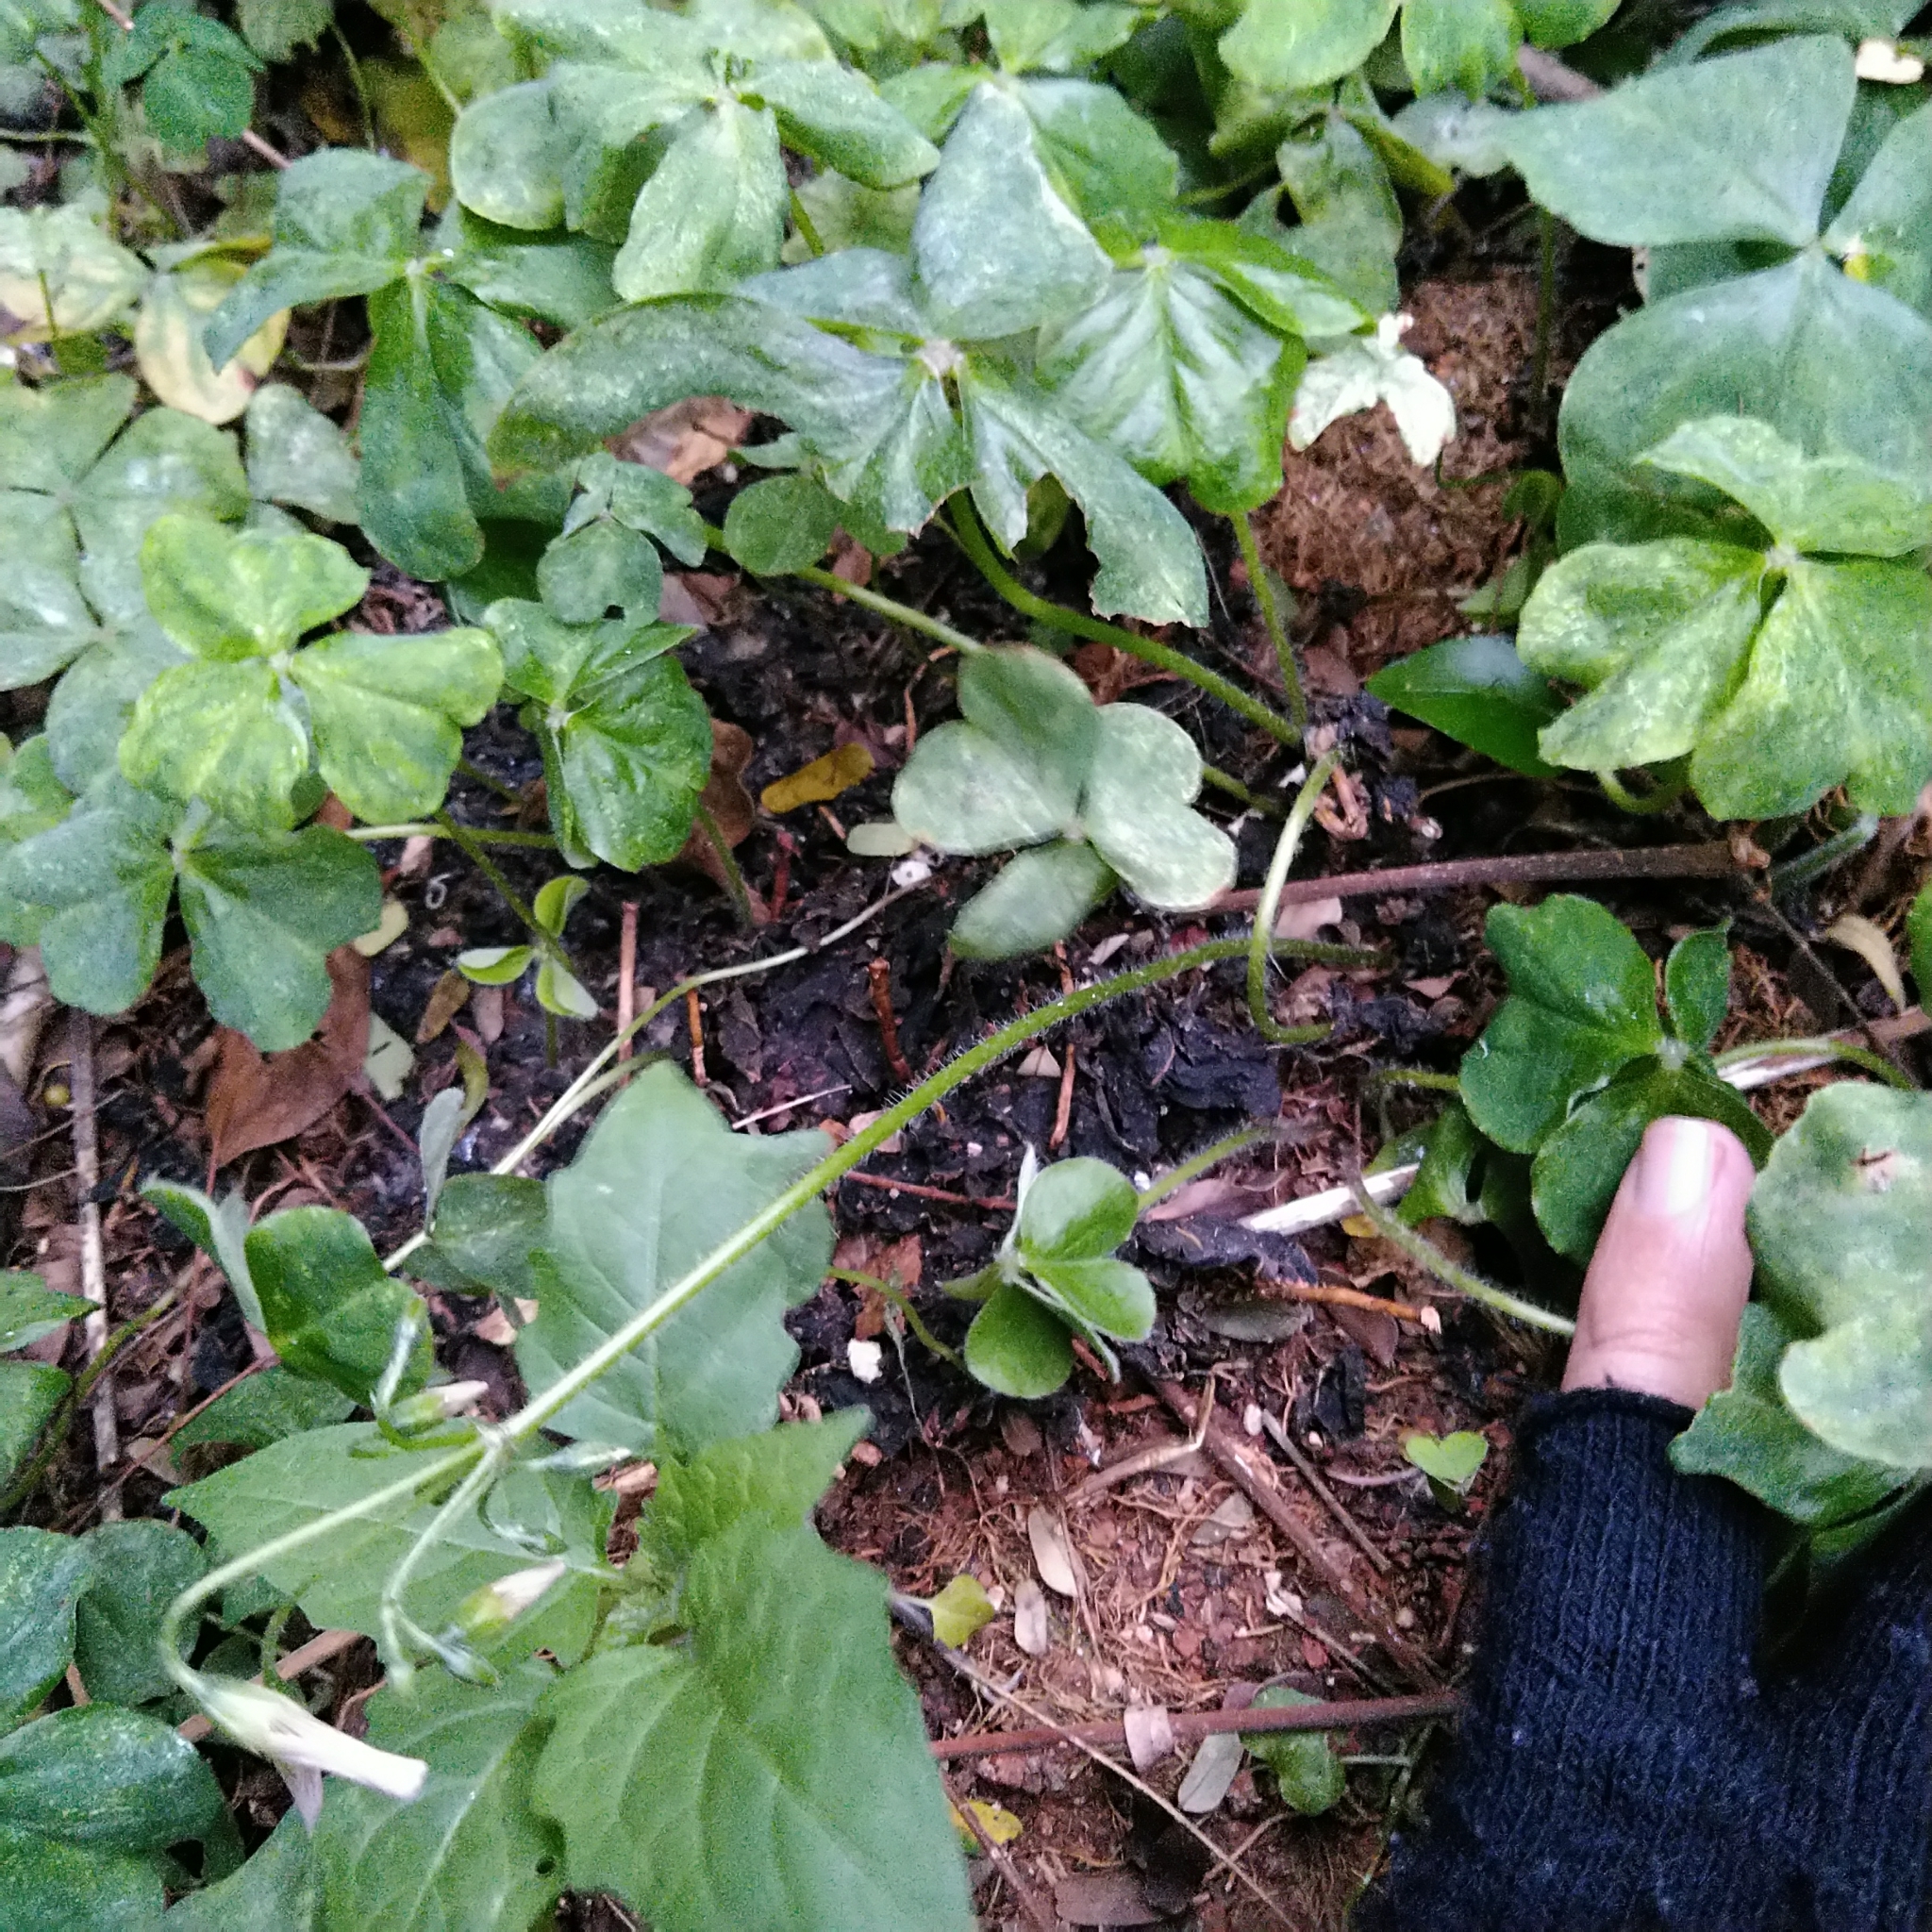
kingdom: Plantae
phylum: Tracheophyta
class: Magnoliopsida
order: Oxalidales
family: Oxalidaceae
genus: Oxalis
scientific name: Oxalis debilis
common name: Large-flowered pink-sorrel
